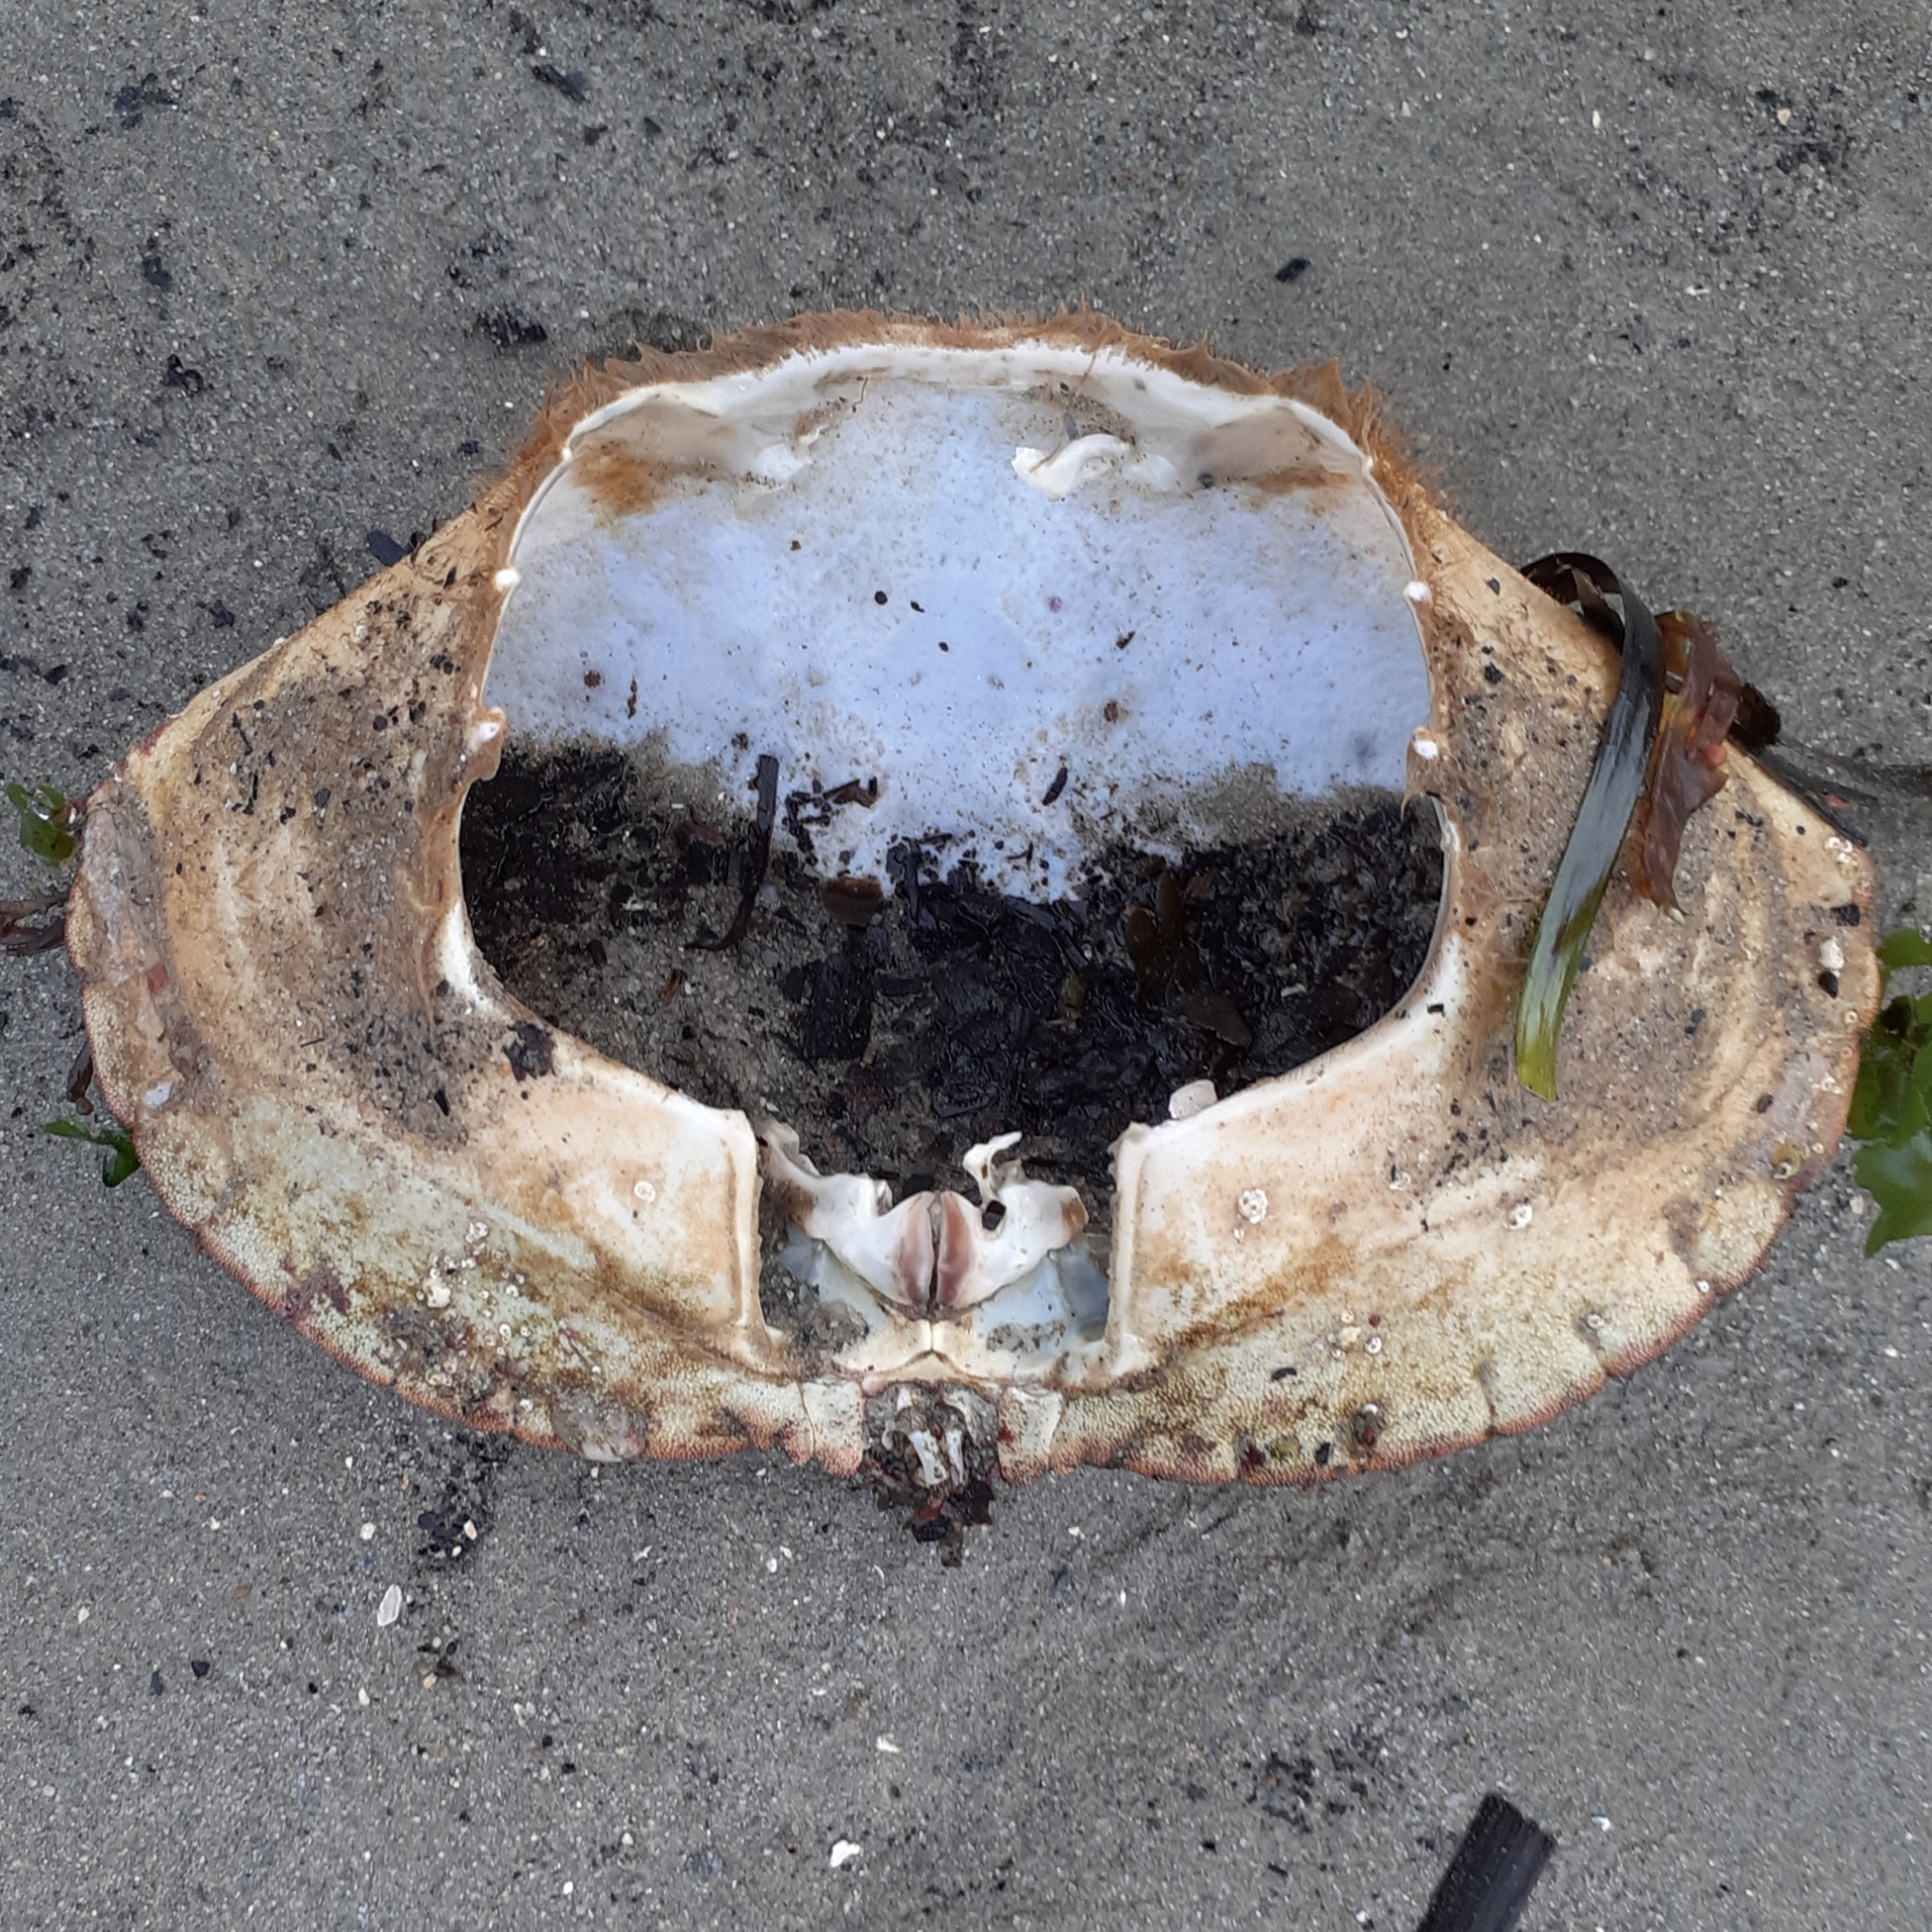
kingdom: Animalia
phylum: Arthropoda
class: Malacostraca
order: Decapoda
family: Cancridae
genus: Cancer
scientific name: Cancer pagurus
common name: Edible crab
